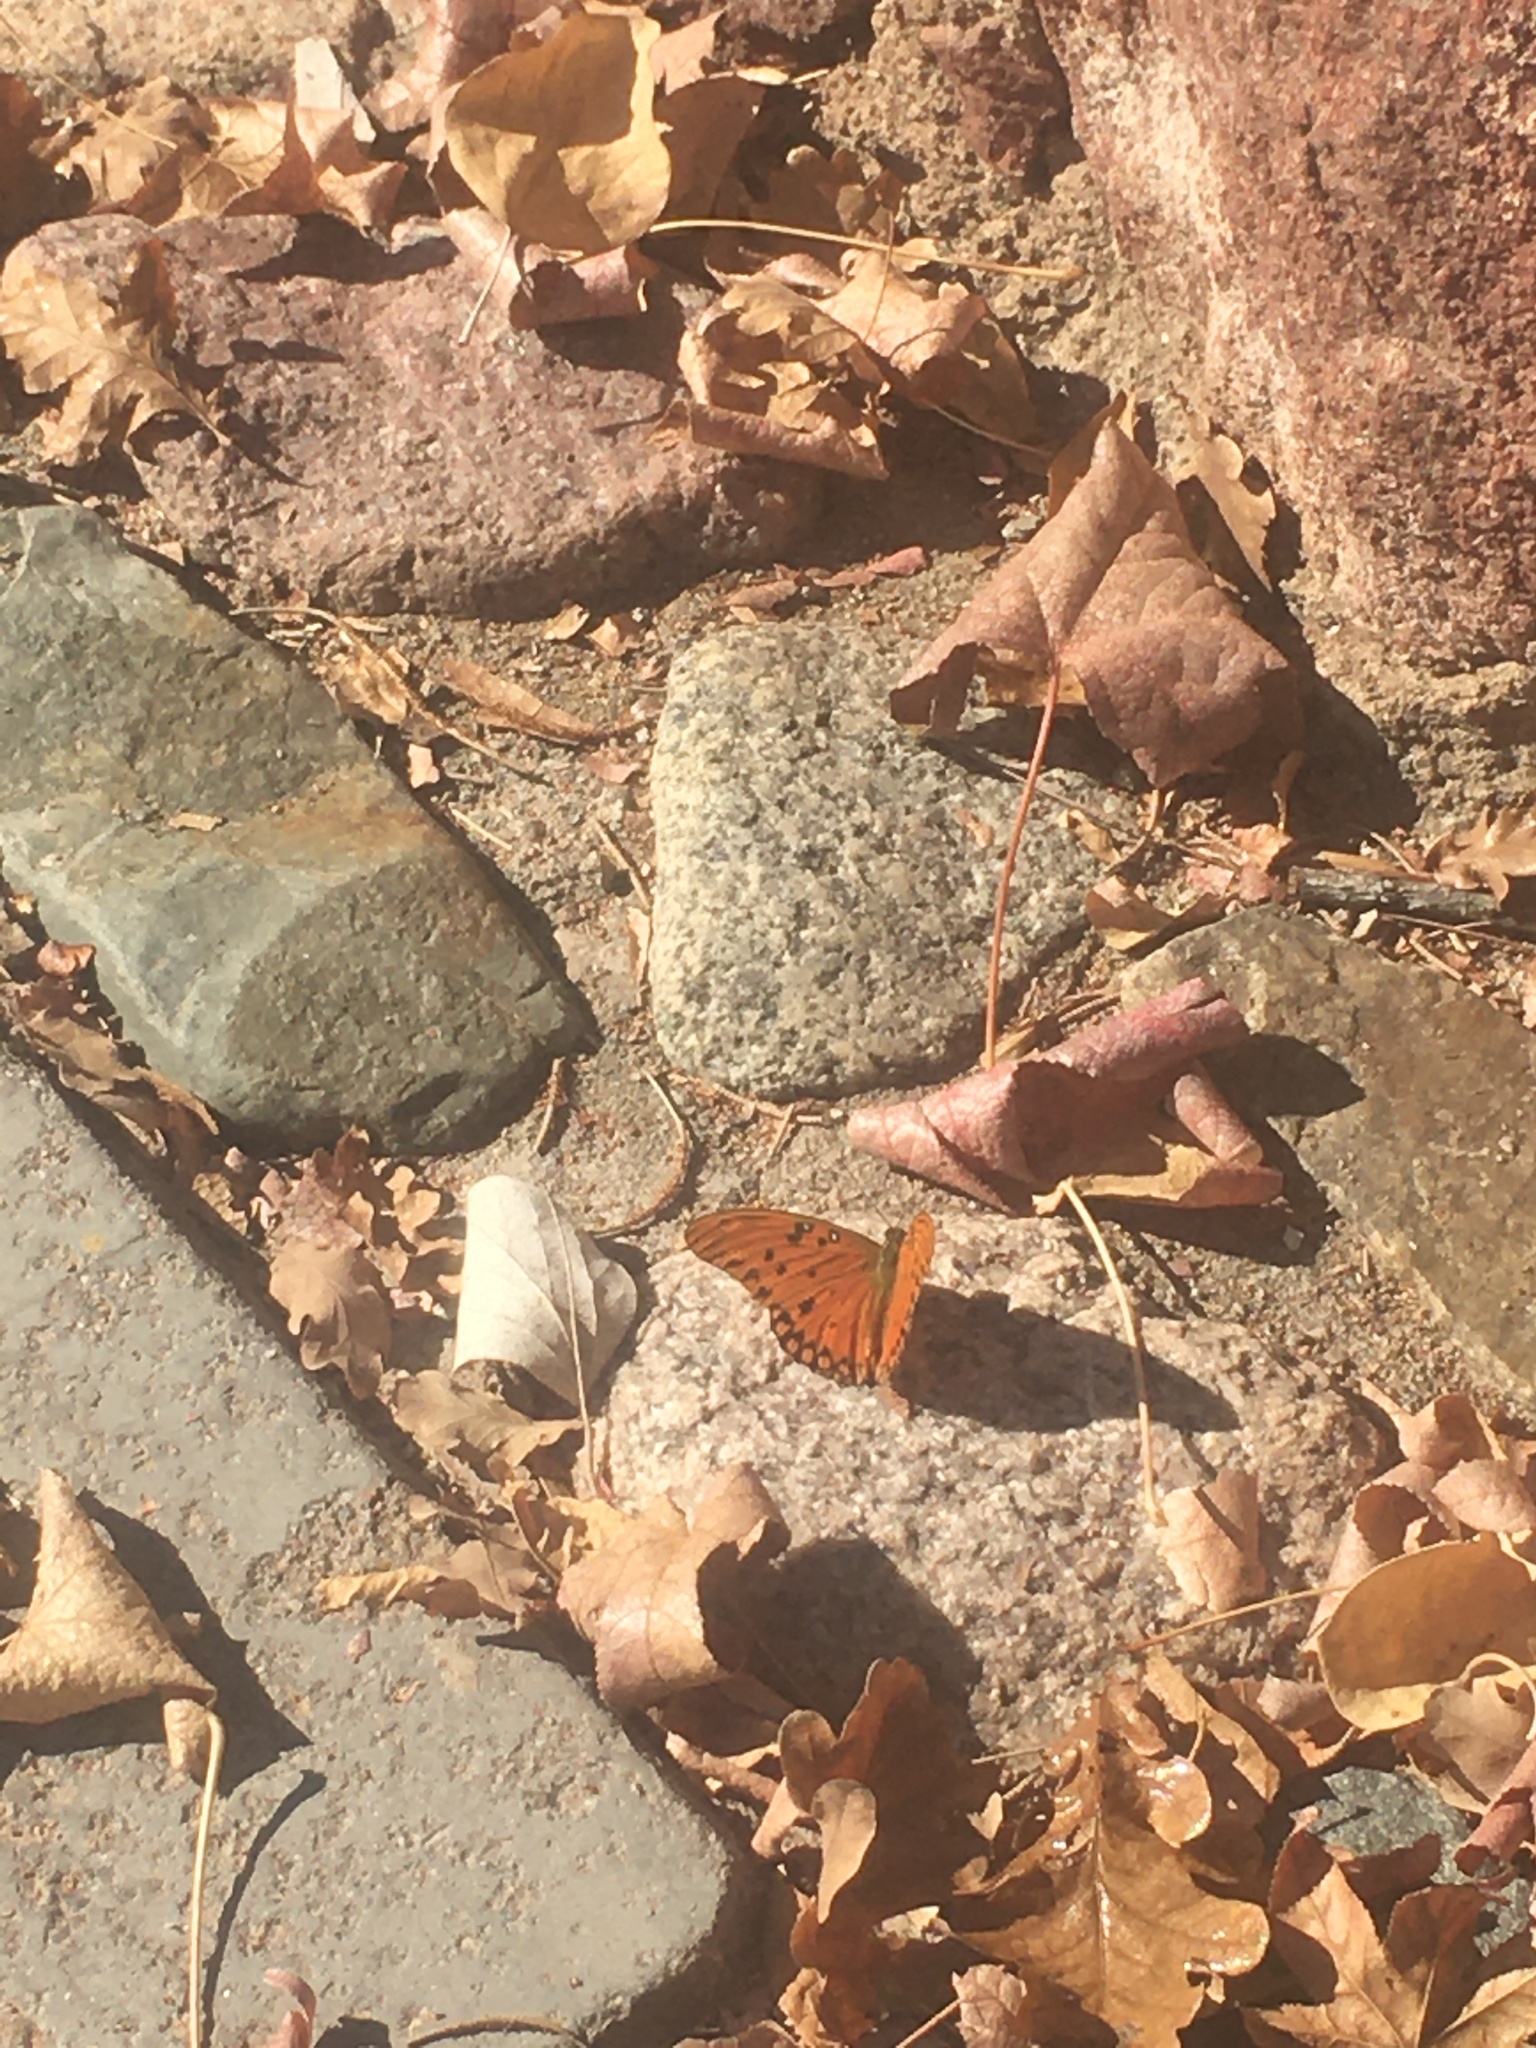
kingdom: Animalia
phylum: Arthropoda
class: Insecta
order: Lepidoptera
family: Nymphalidae
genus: Dione
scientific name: Dione vanillae
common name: Gulf fritillary
